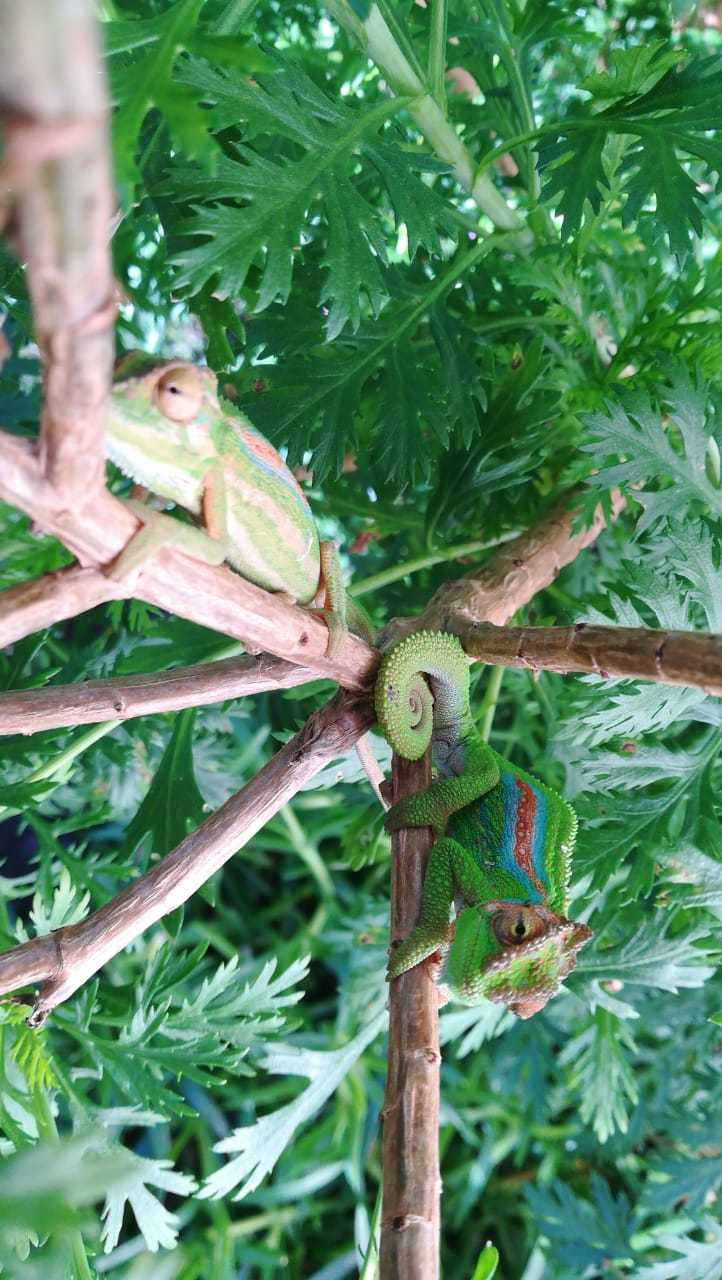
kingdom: Animalia
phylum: Chordata
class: Squamata
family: Chamaeleonidae
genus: Bradypodion
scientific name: Bradypodion pumilum
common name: Cape dwarf chameleon
